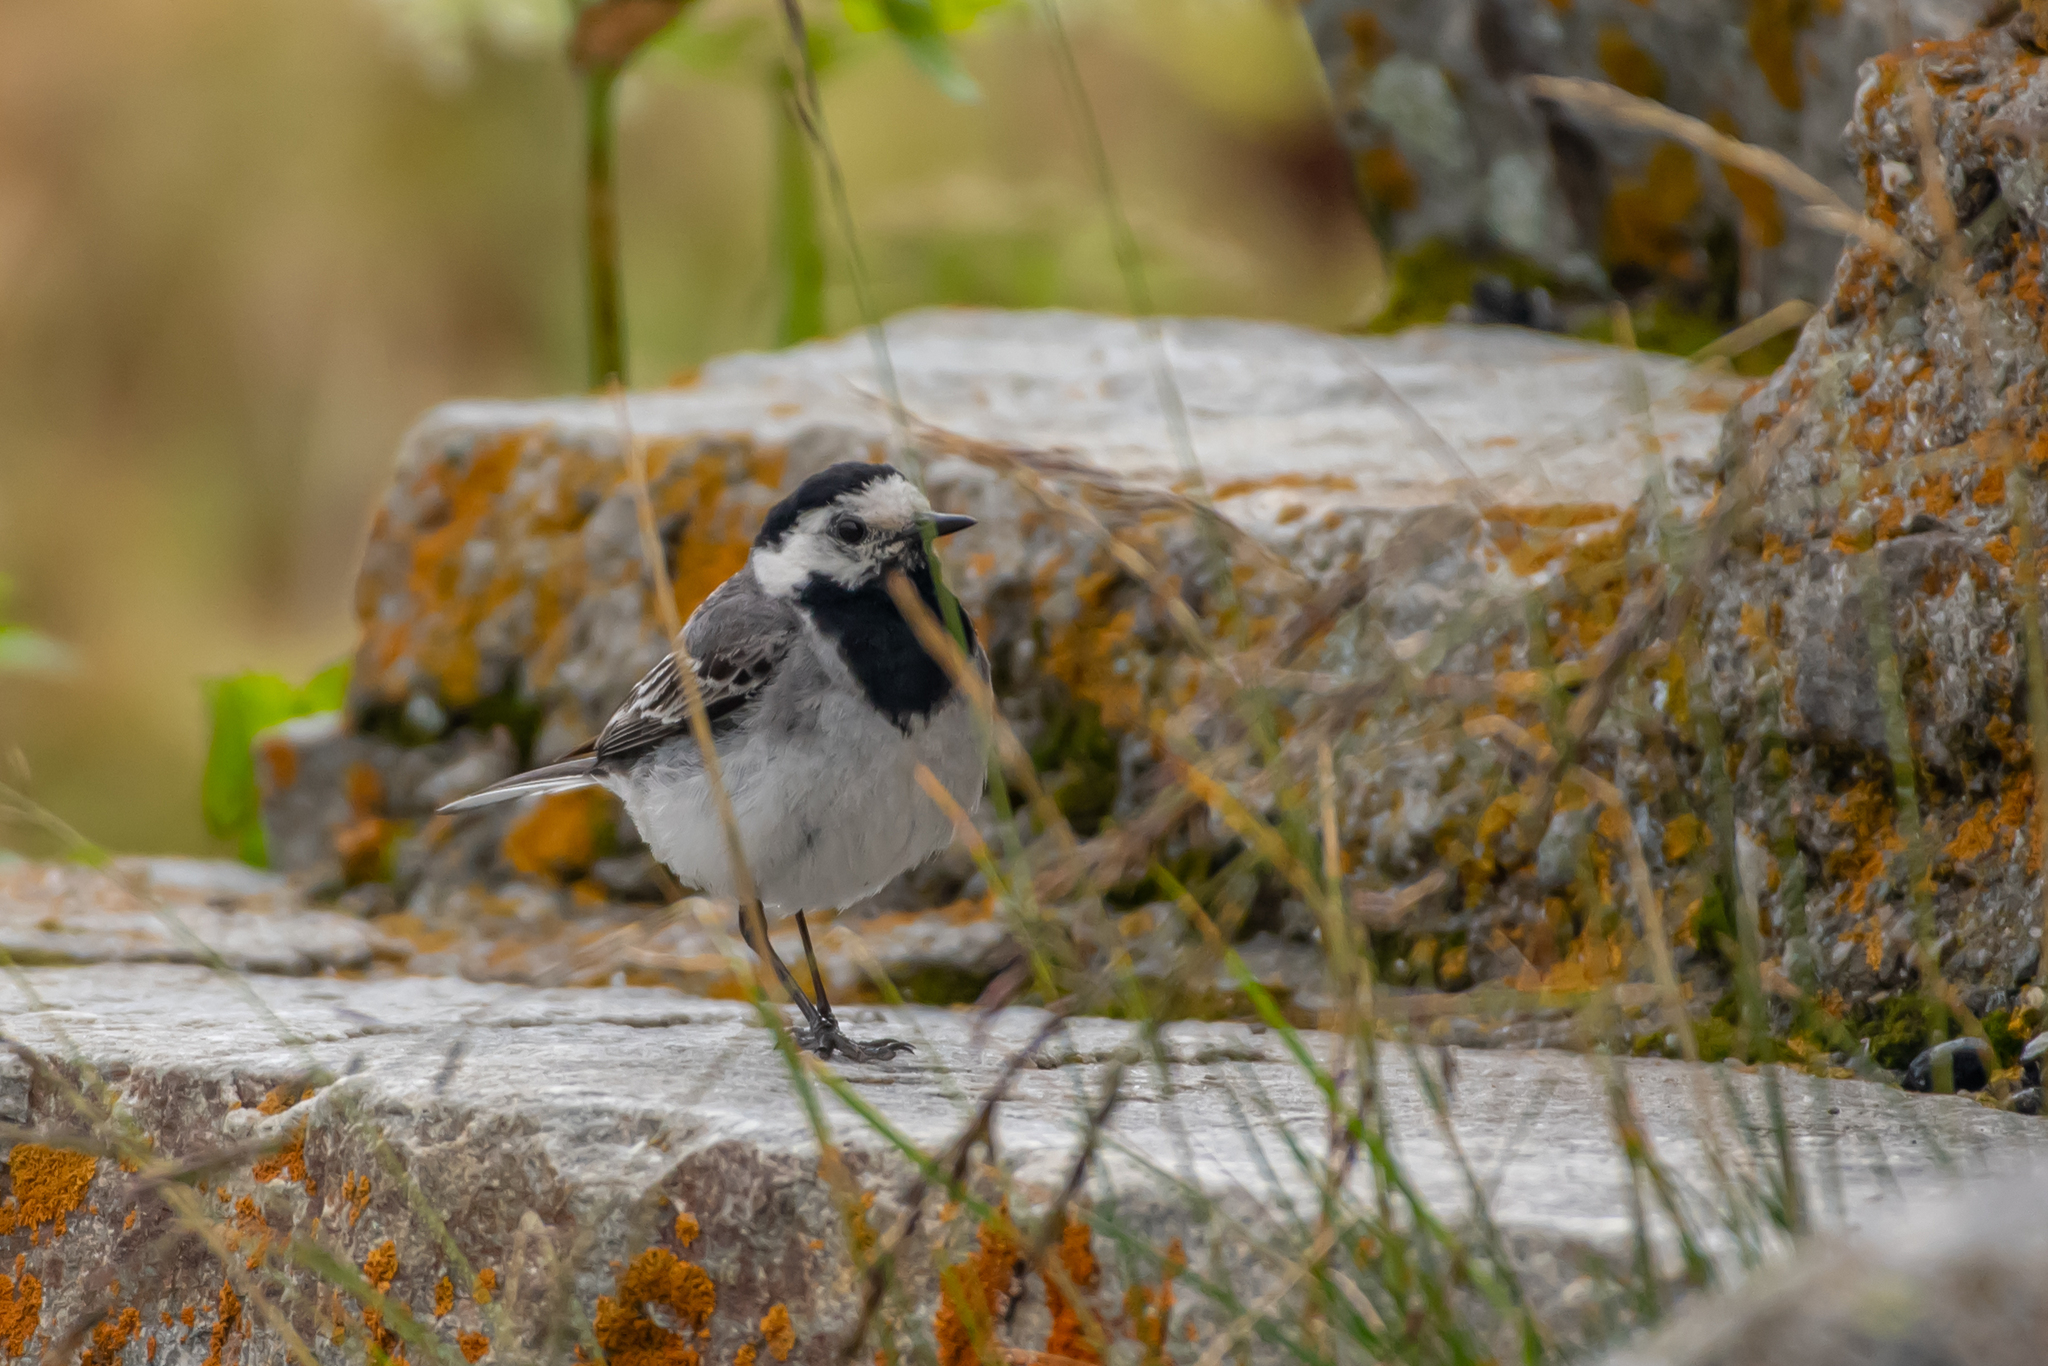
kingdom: Animalia
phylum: Chordata
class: Aves
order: Passeriformes
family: Motacillidae
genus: Motacilla
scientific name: Motacilla alba
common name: White wagtail
